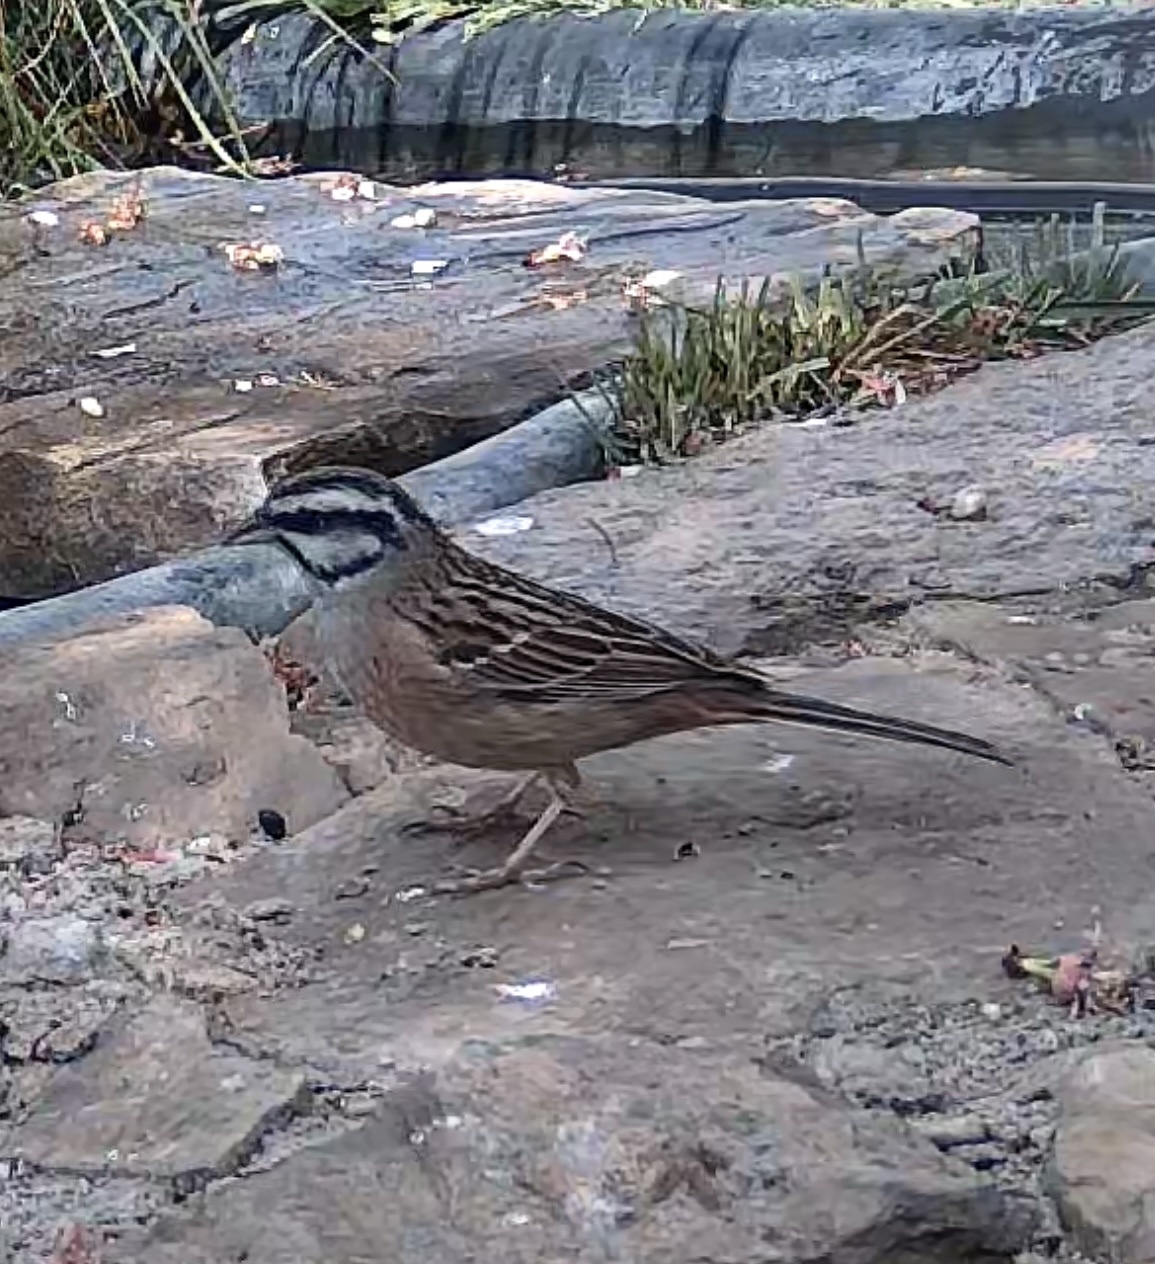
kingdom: Animalia
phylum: Chordata
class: Aves
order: Passeriformes
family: Emberizidae
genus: Emberiza
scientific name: Emberiza cia
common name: Rock bunting
